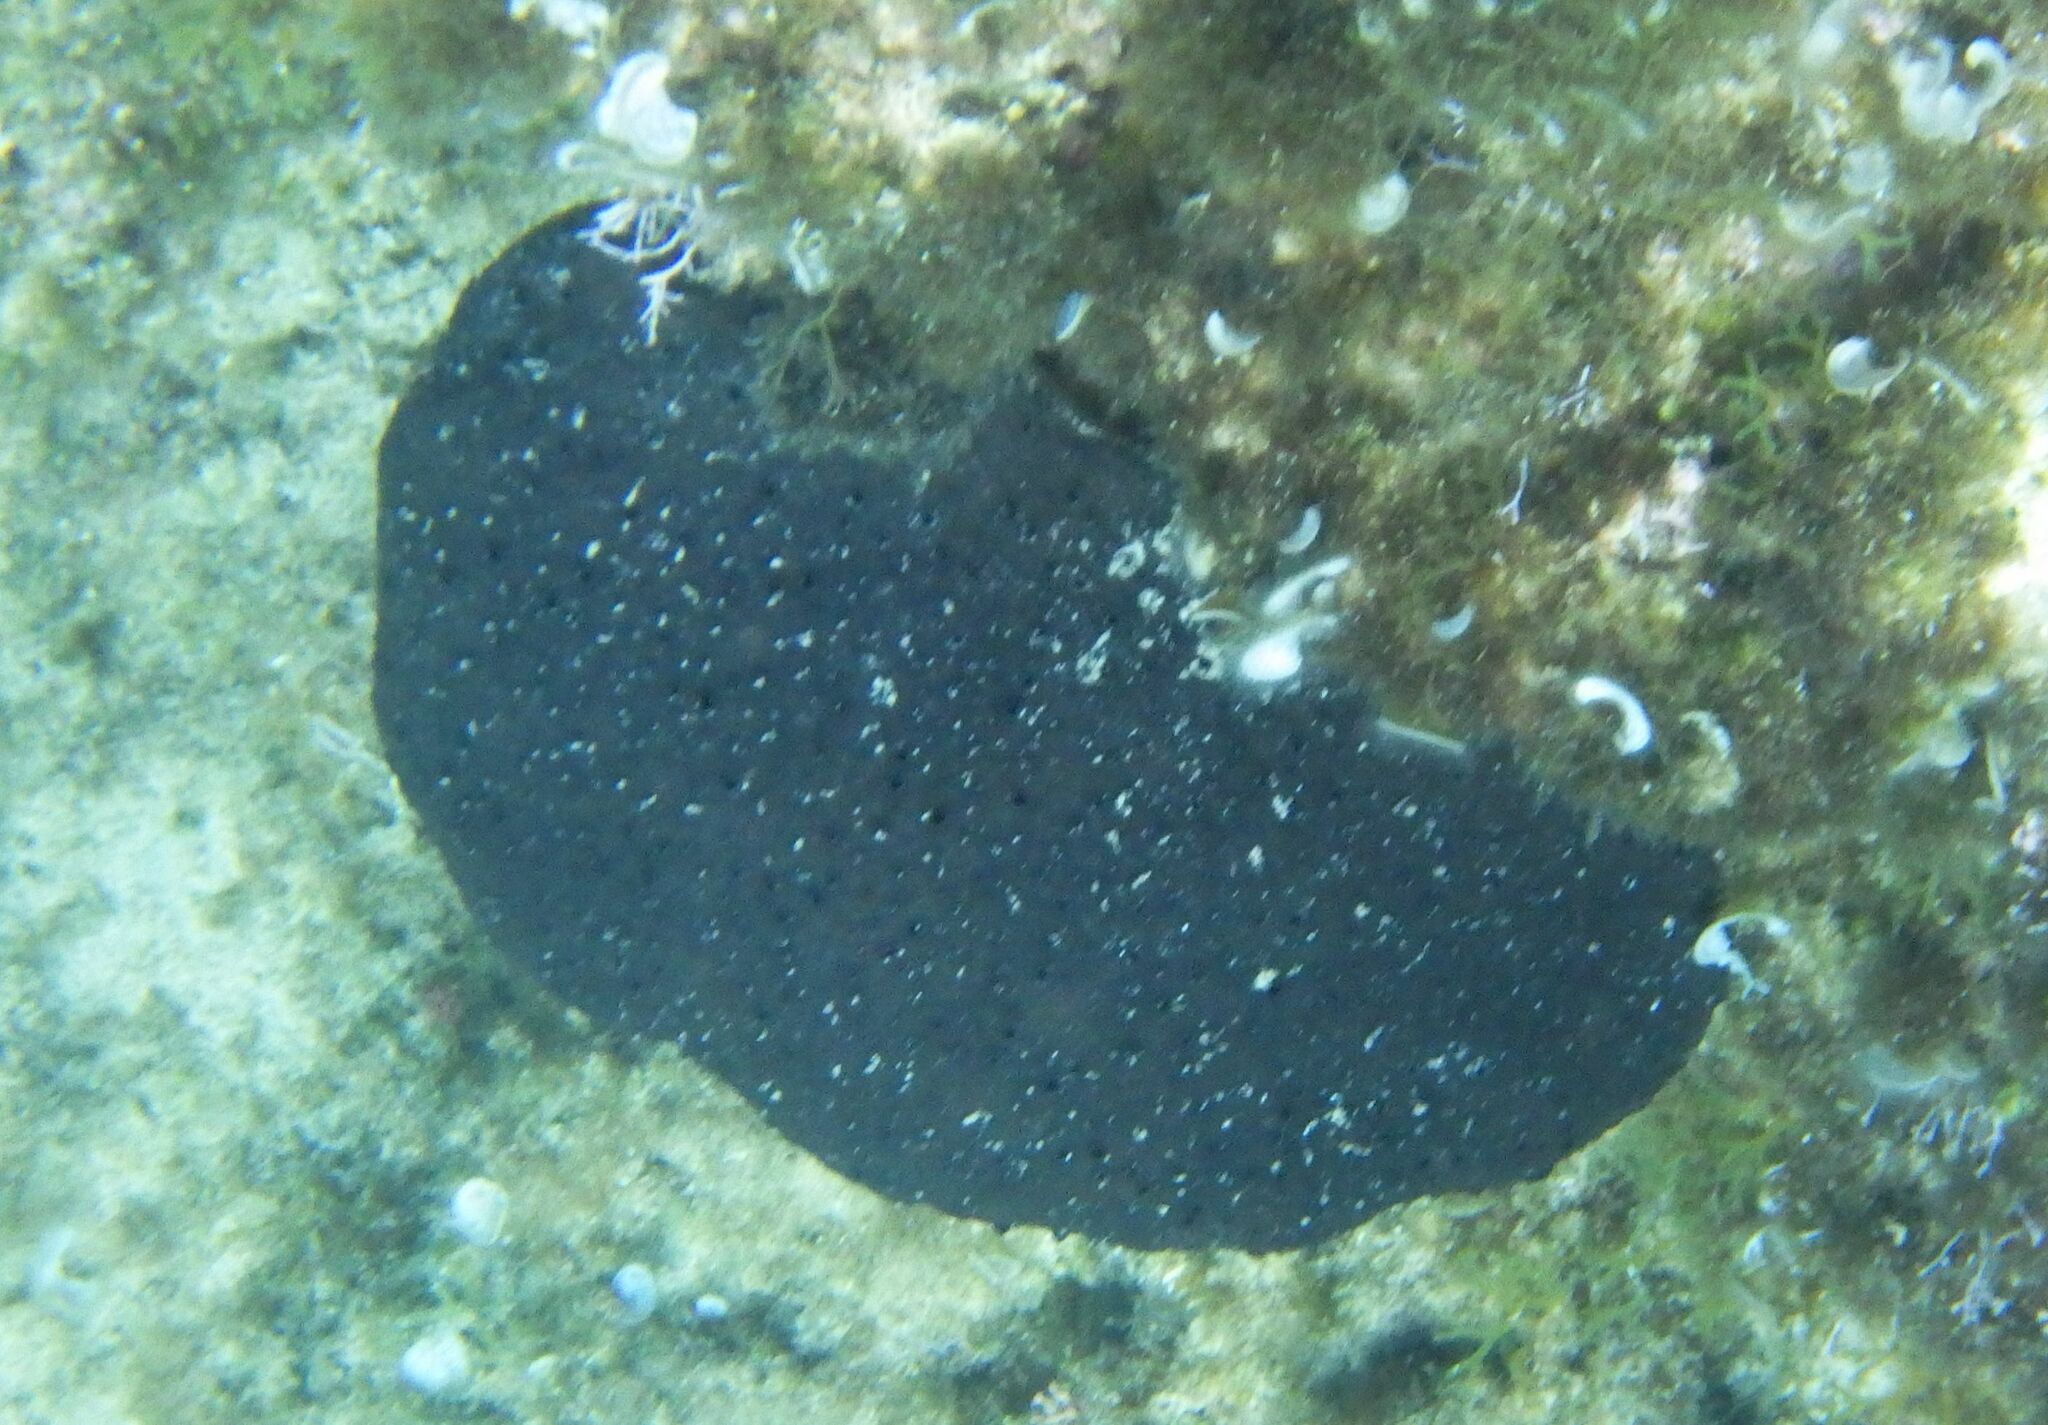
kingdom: Animalia
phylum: Porifera
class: Demospongiae
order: Dictyoceratida
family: Irciniidae
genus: Sarcotragus
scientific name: Sarcotragus spinosulus
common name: Black leather sponge
